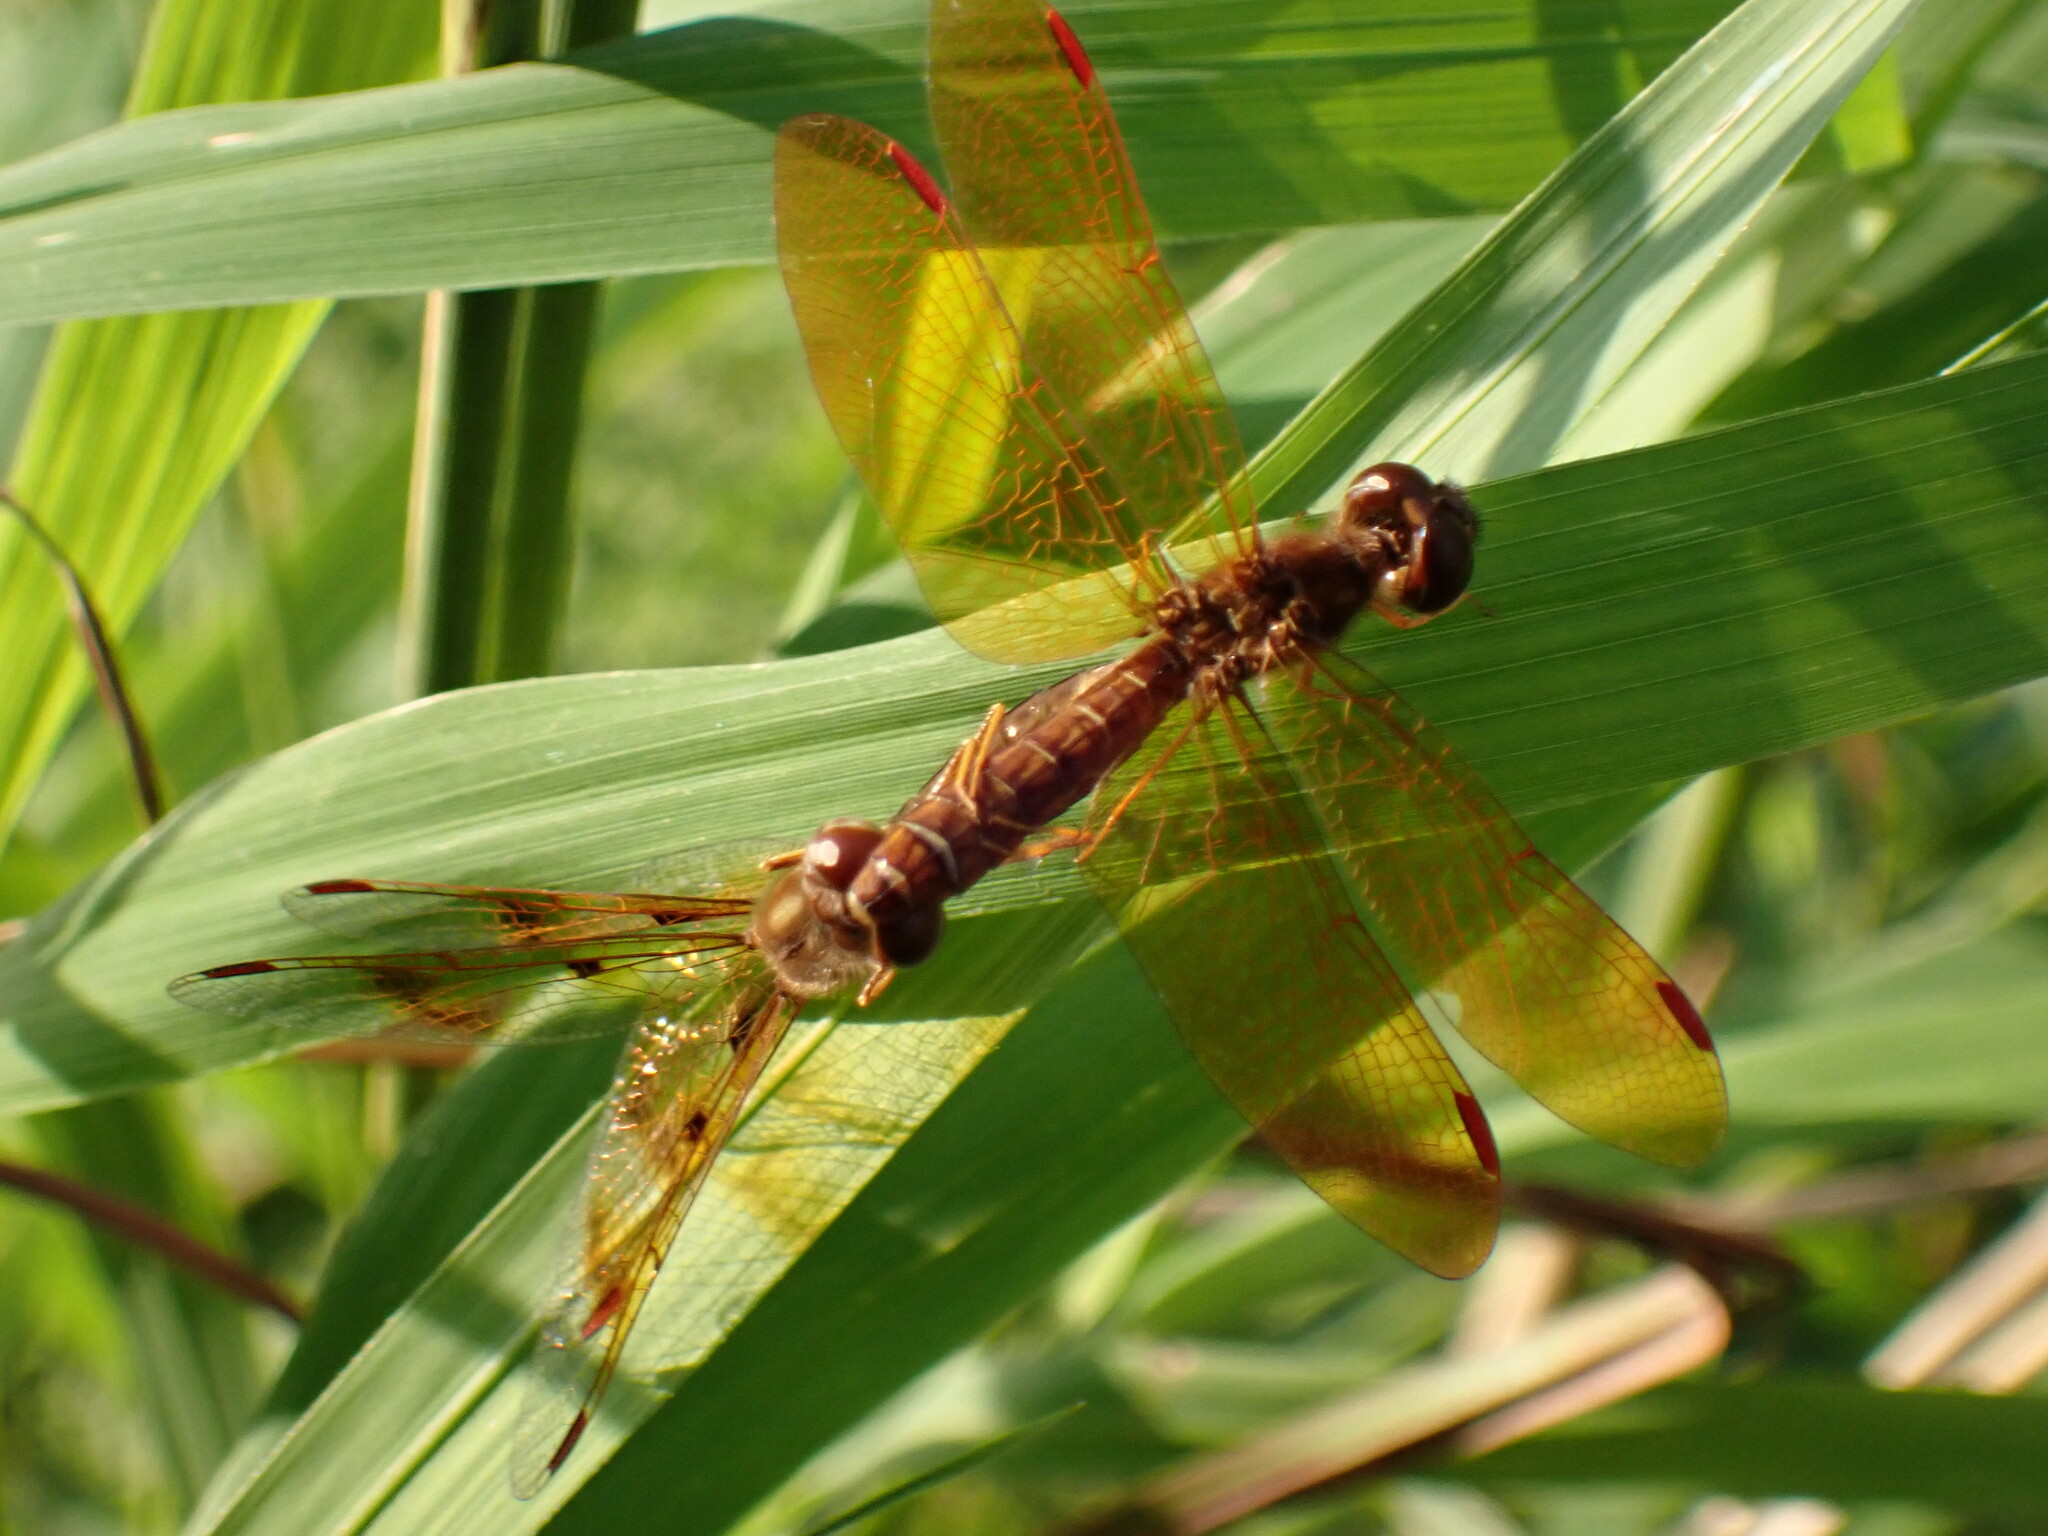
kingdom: Animalia
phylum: Arthropoda
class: Insecta
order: Odonata
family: Libellulidae
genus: Perithemis
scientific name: Perithemis tenera
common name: Eastern amberwing
